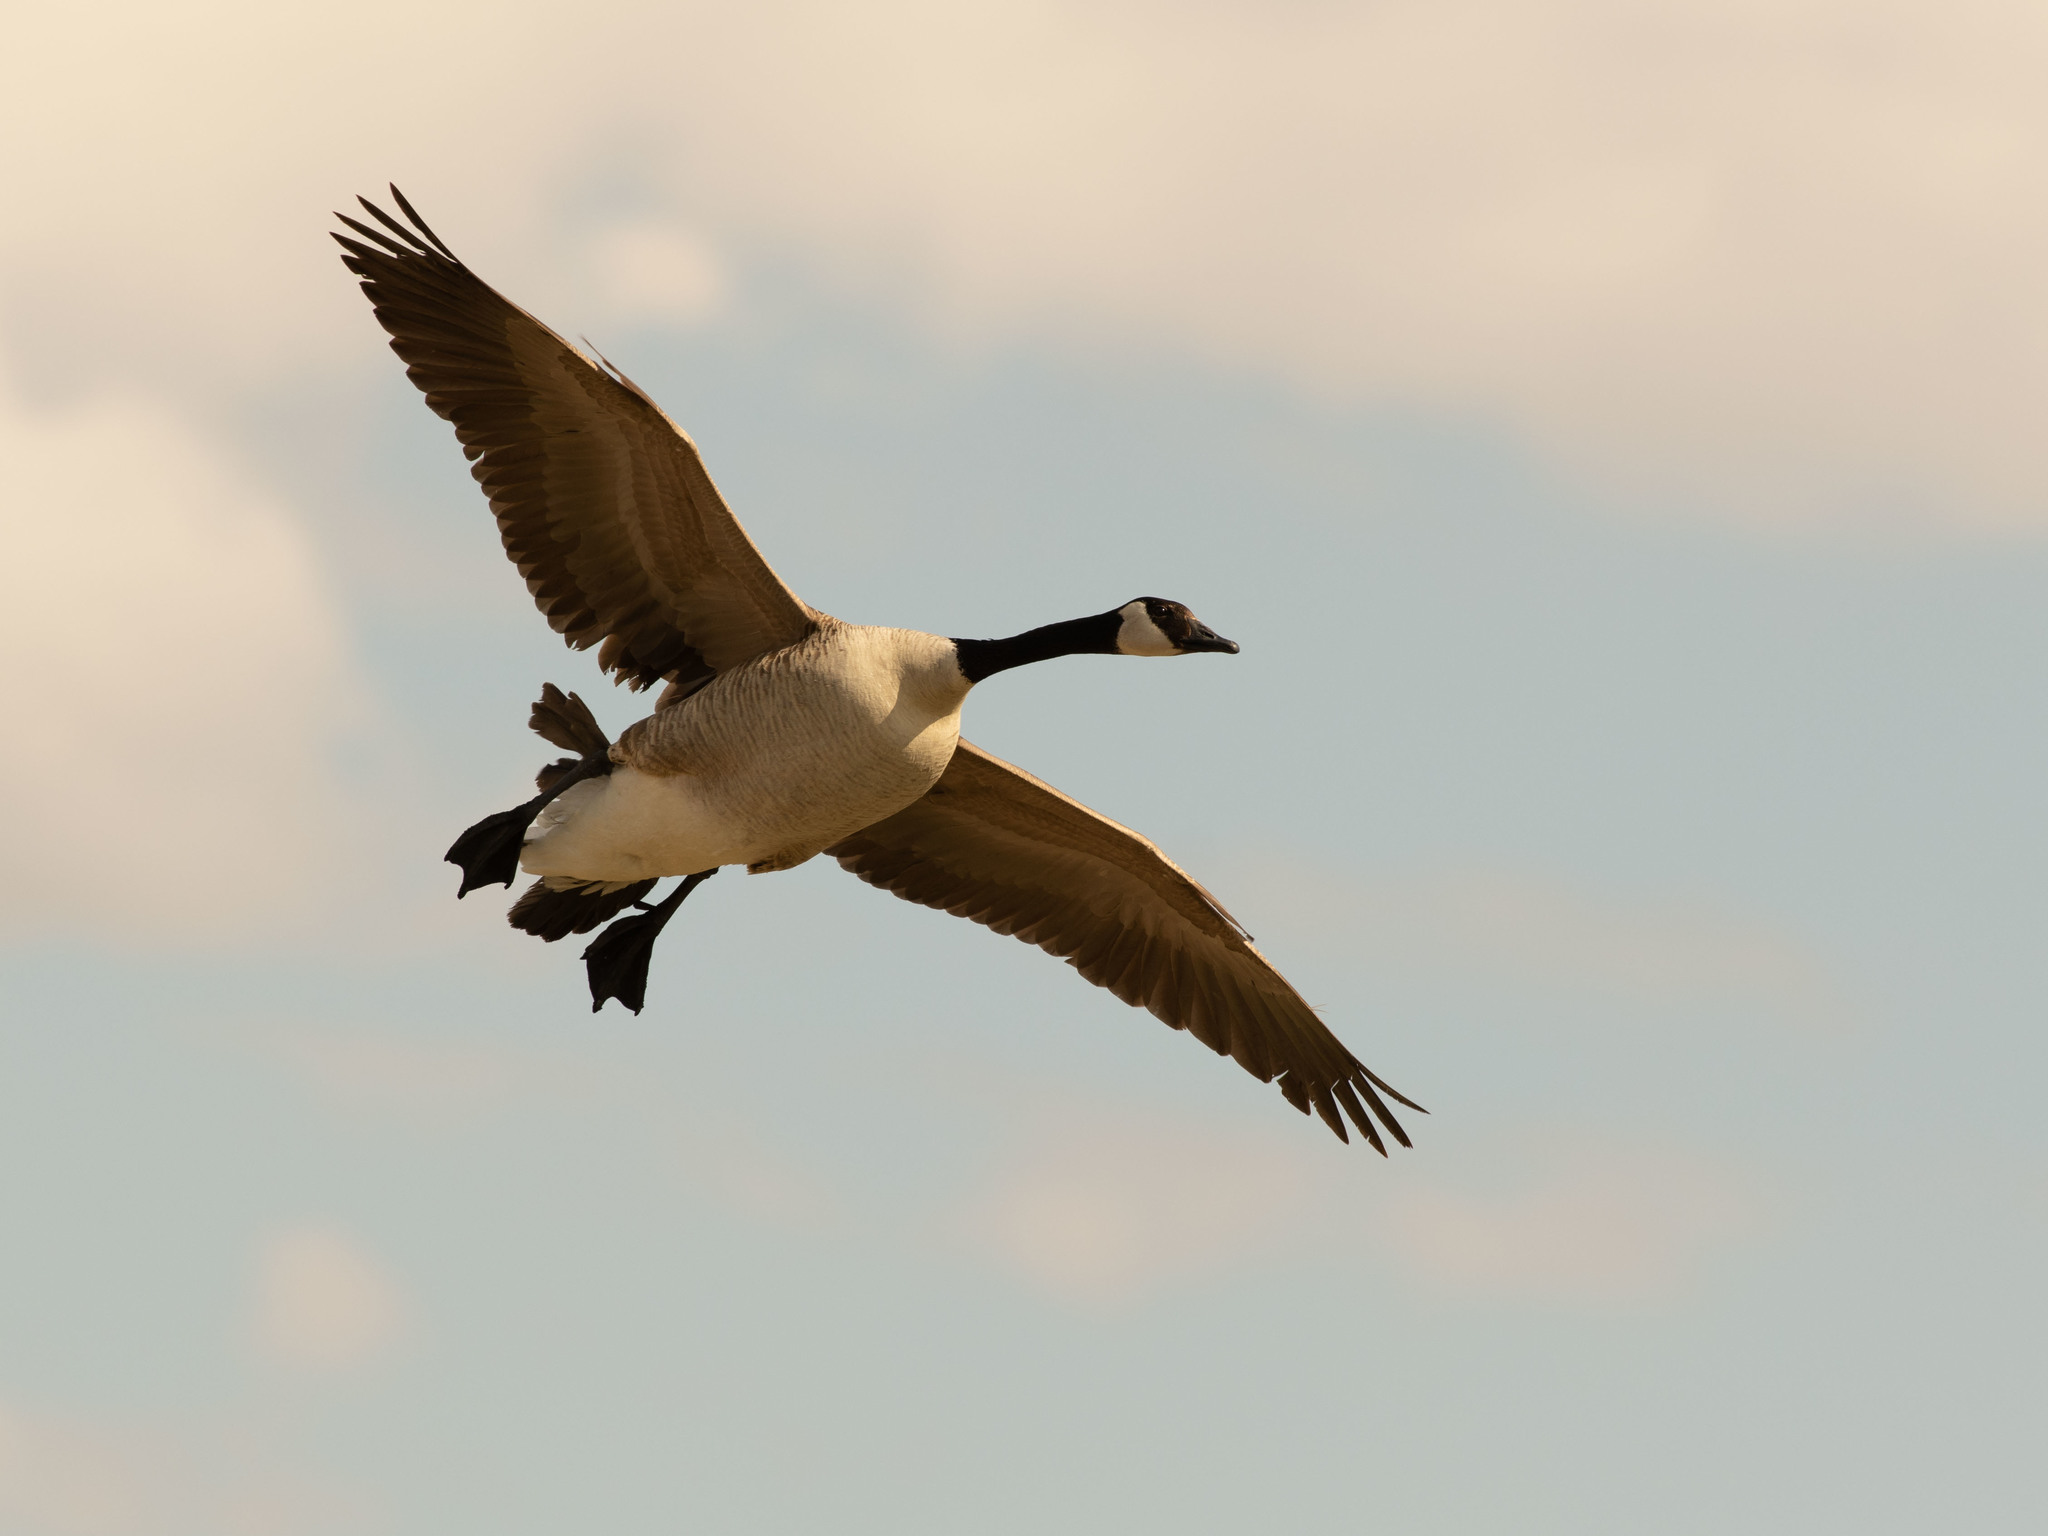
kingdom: Animalia
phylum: Chordata
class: Aves
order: Anseriformes
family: Anatidae
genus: Branta
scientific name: Branta canadensis
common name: Canada goose
